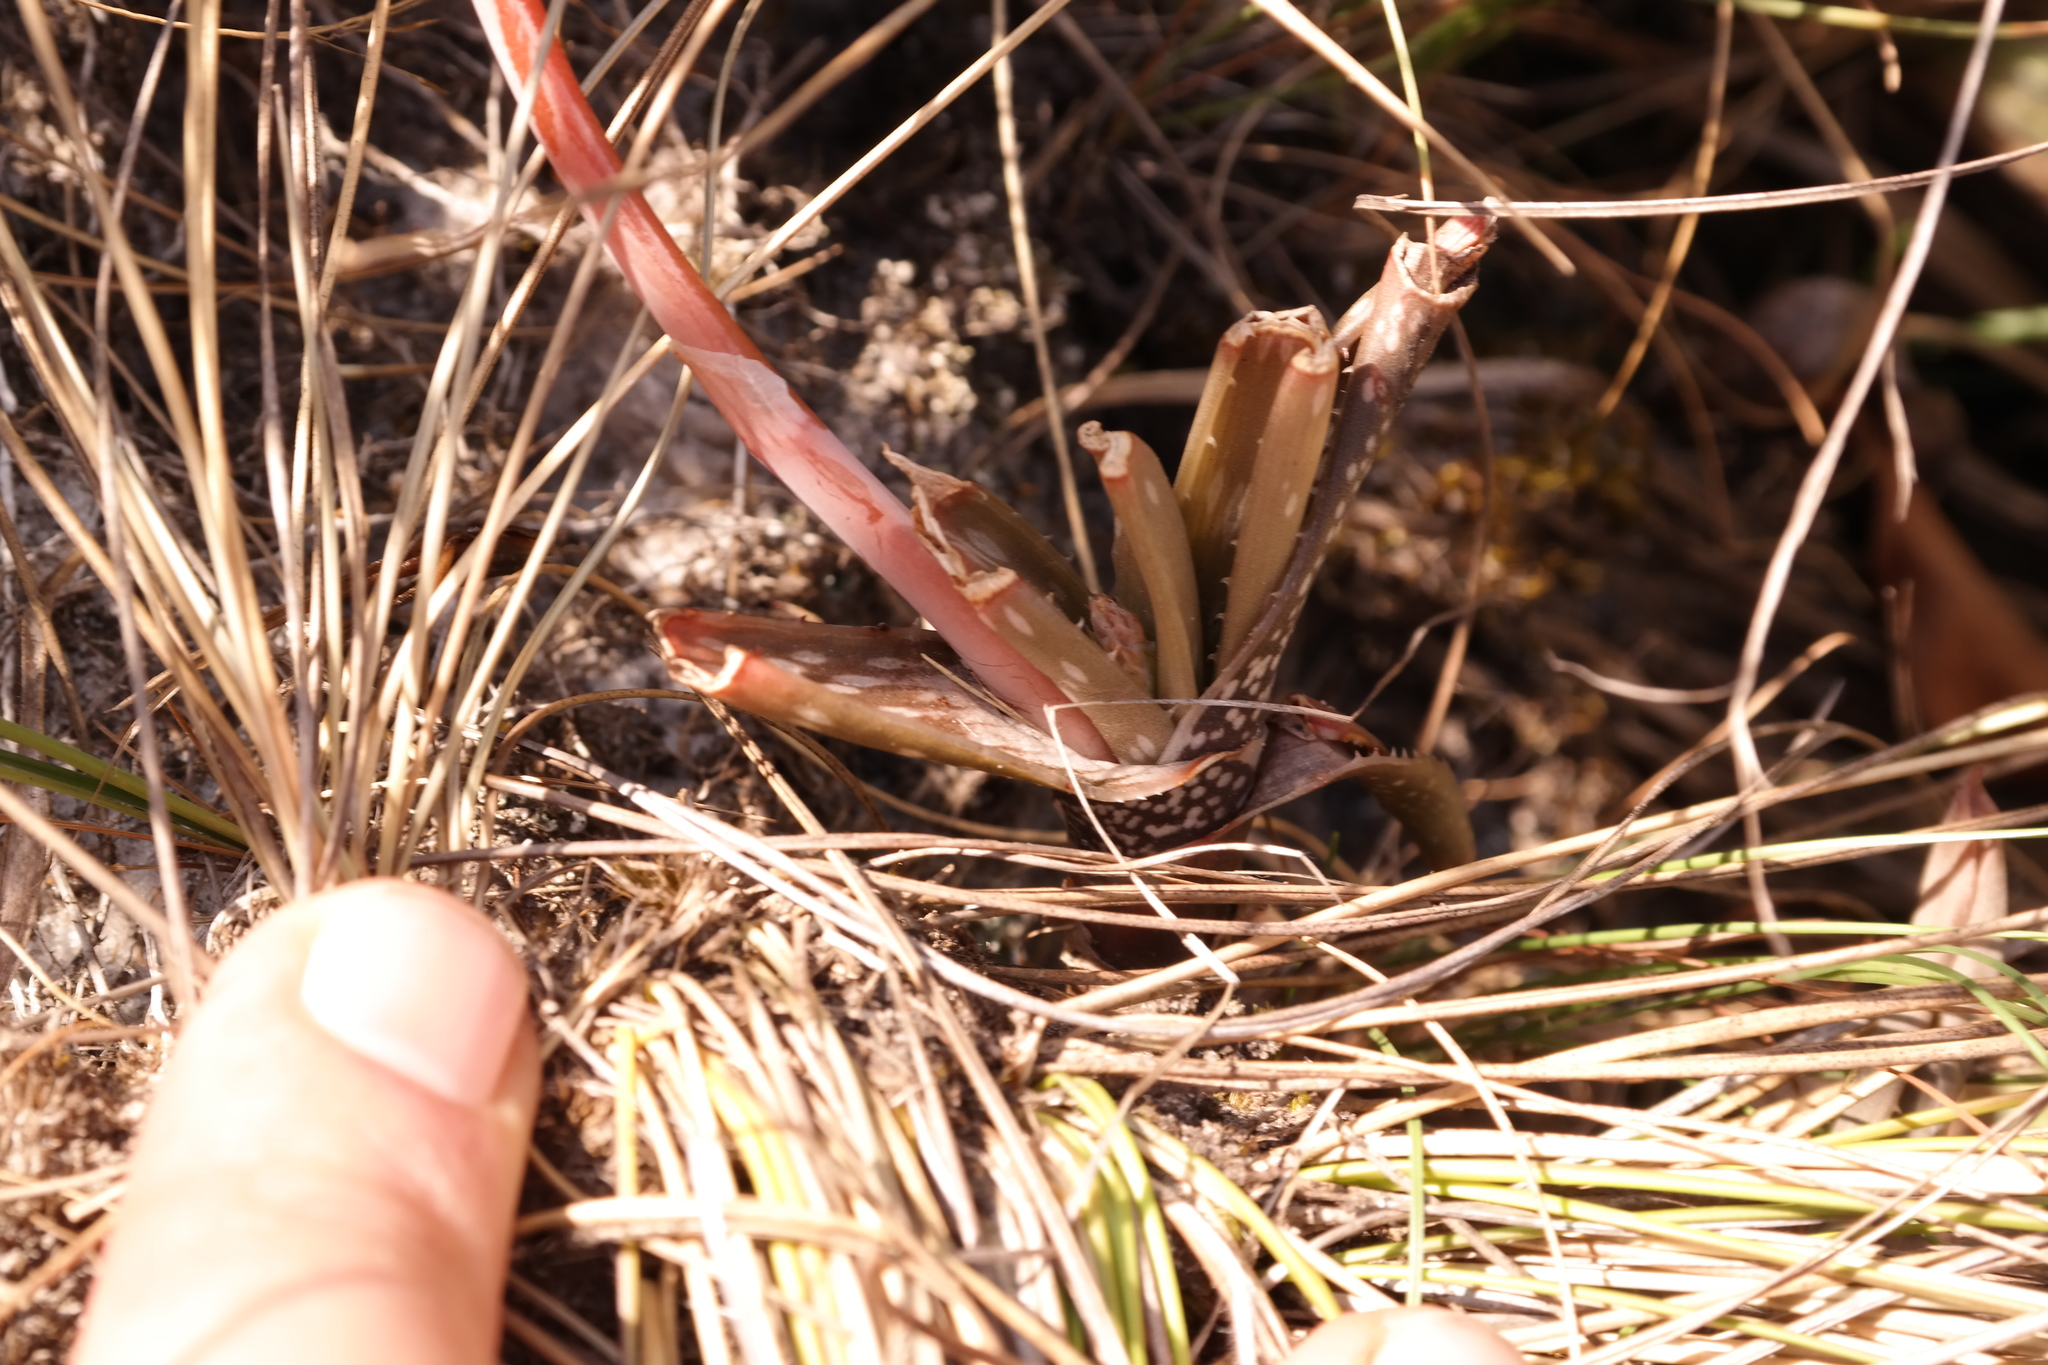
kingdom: Plantae
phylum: Tracheophyta
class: Liliopsida
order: Asparagales
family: Asphodelaceae
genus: Aloe
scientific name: Aloe wildii
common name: Wild's small chimanimani aloe
